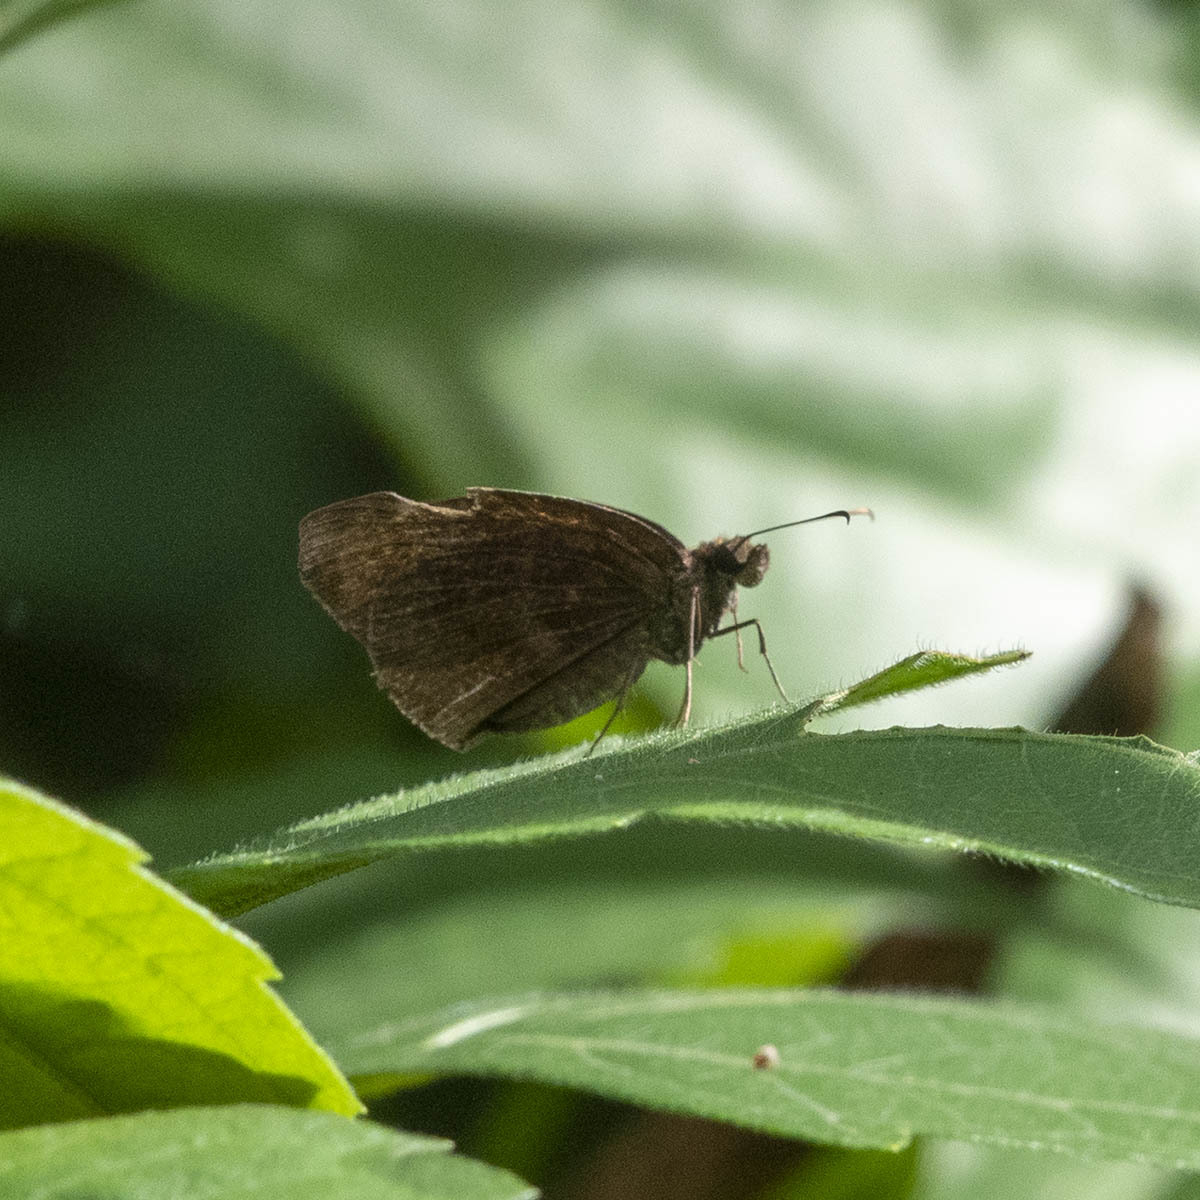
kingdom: Animalia
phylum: Arthropoda
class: Insecta
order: Lepidoptera
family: Hesperiidae
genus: Psolos
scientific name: Psolos fuligo
